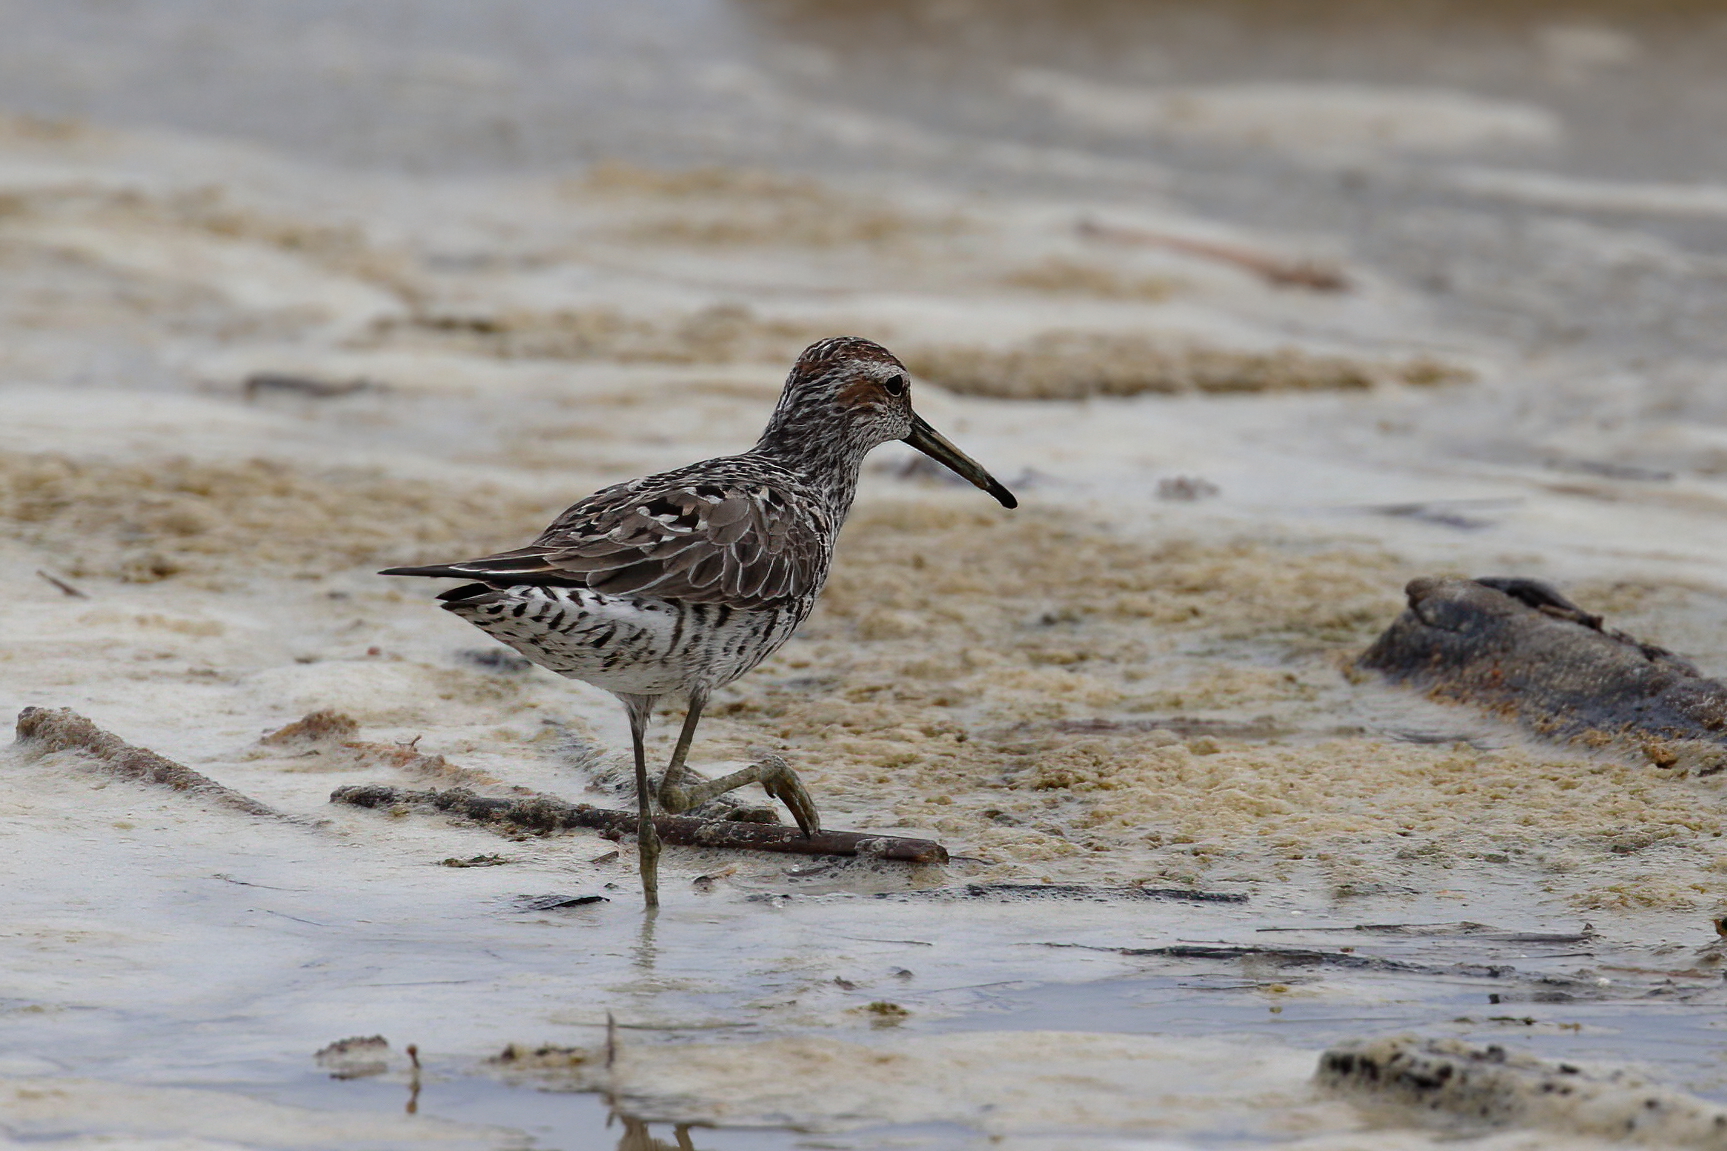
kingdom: Animalia
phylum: Chordata
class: Aves
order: Charadriiformes
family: Scolopacidae
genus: Calidris
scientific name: Calidris himantopus
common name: Stilt sandpiper
